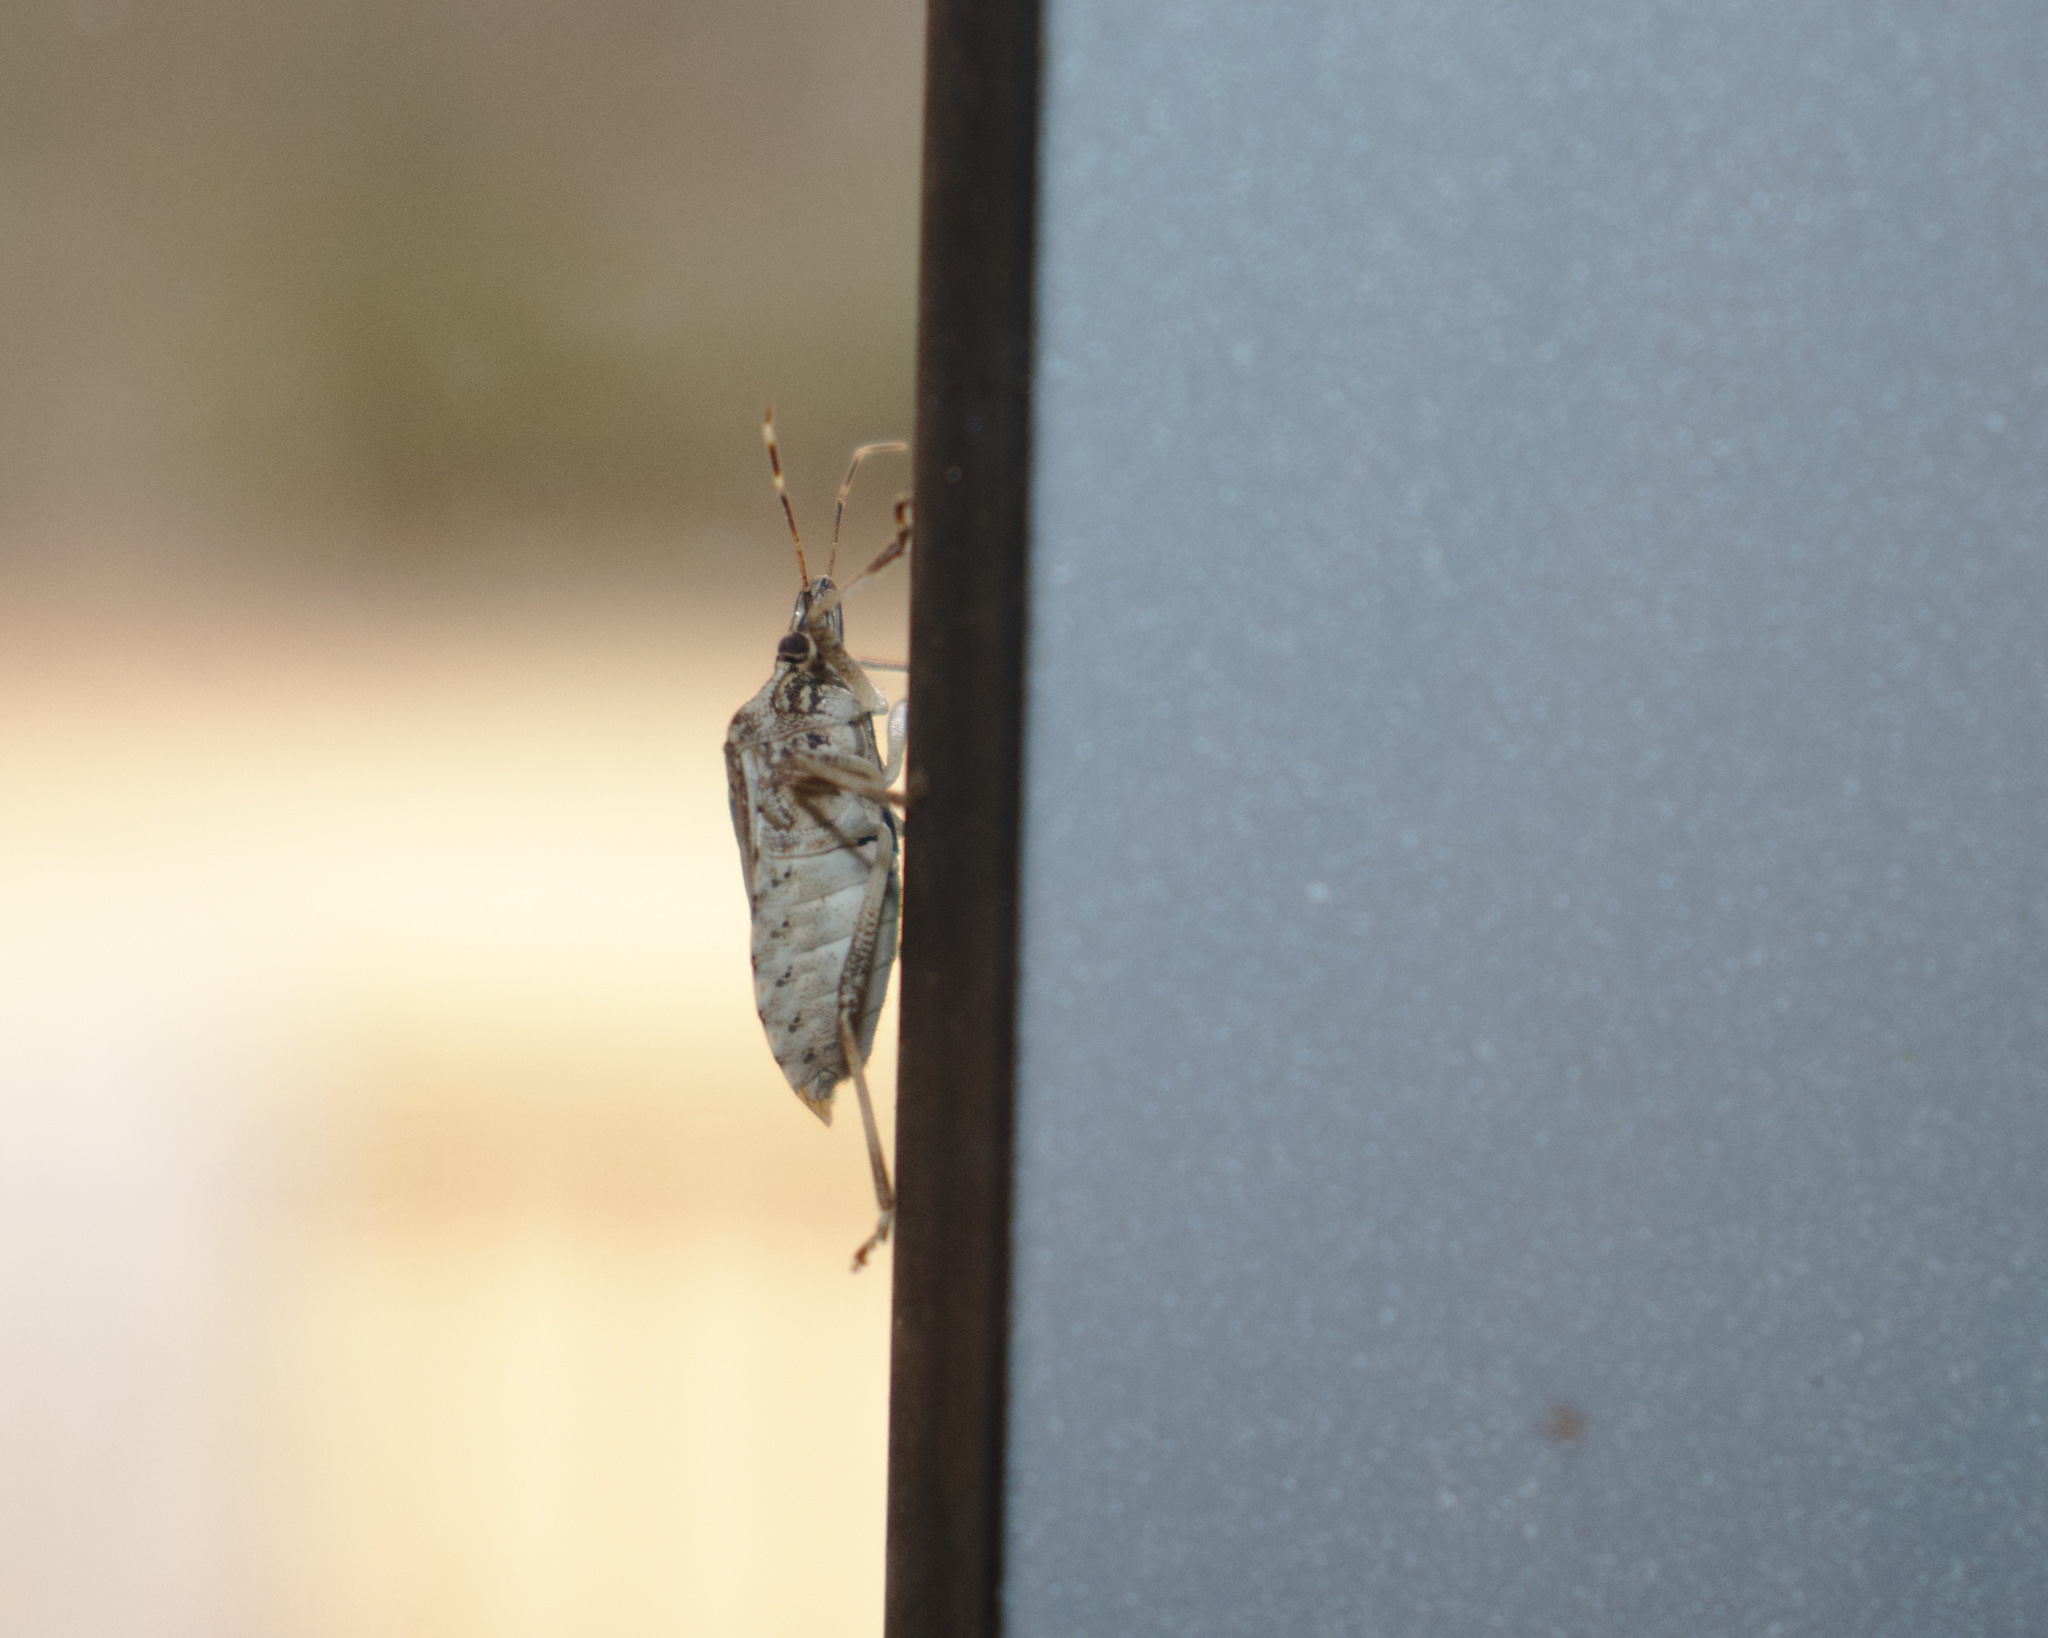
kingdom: Animalia
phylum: Arthropoda
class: Insecta
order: Hemiptera
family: Pentatomidae
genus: Halyomorpha
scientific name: Halyomorpha halys
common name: Brown marmorated stink bug
